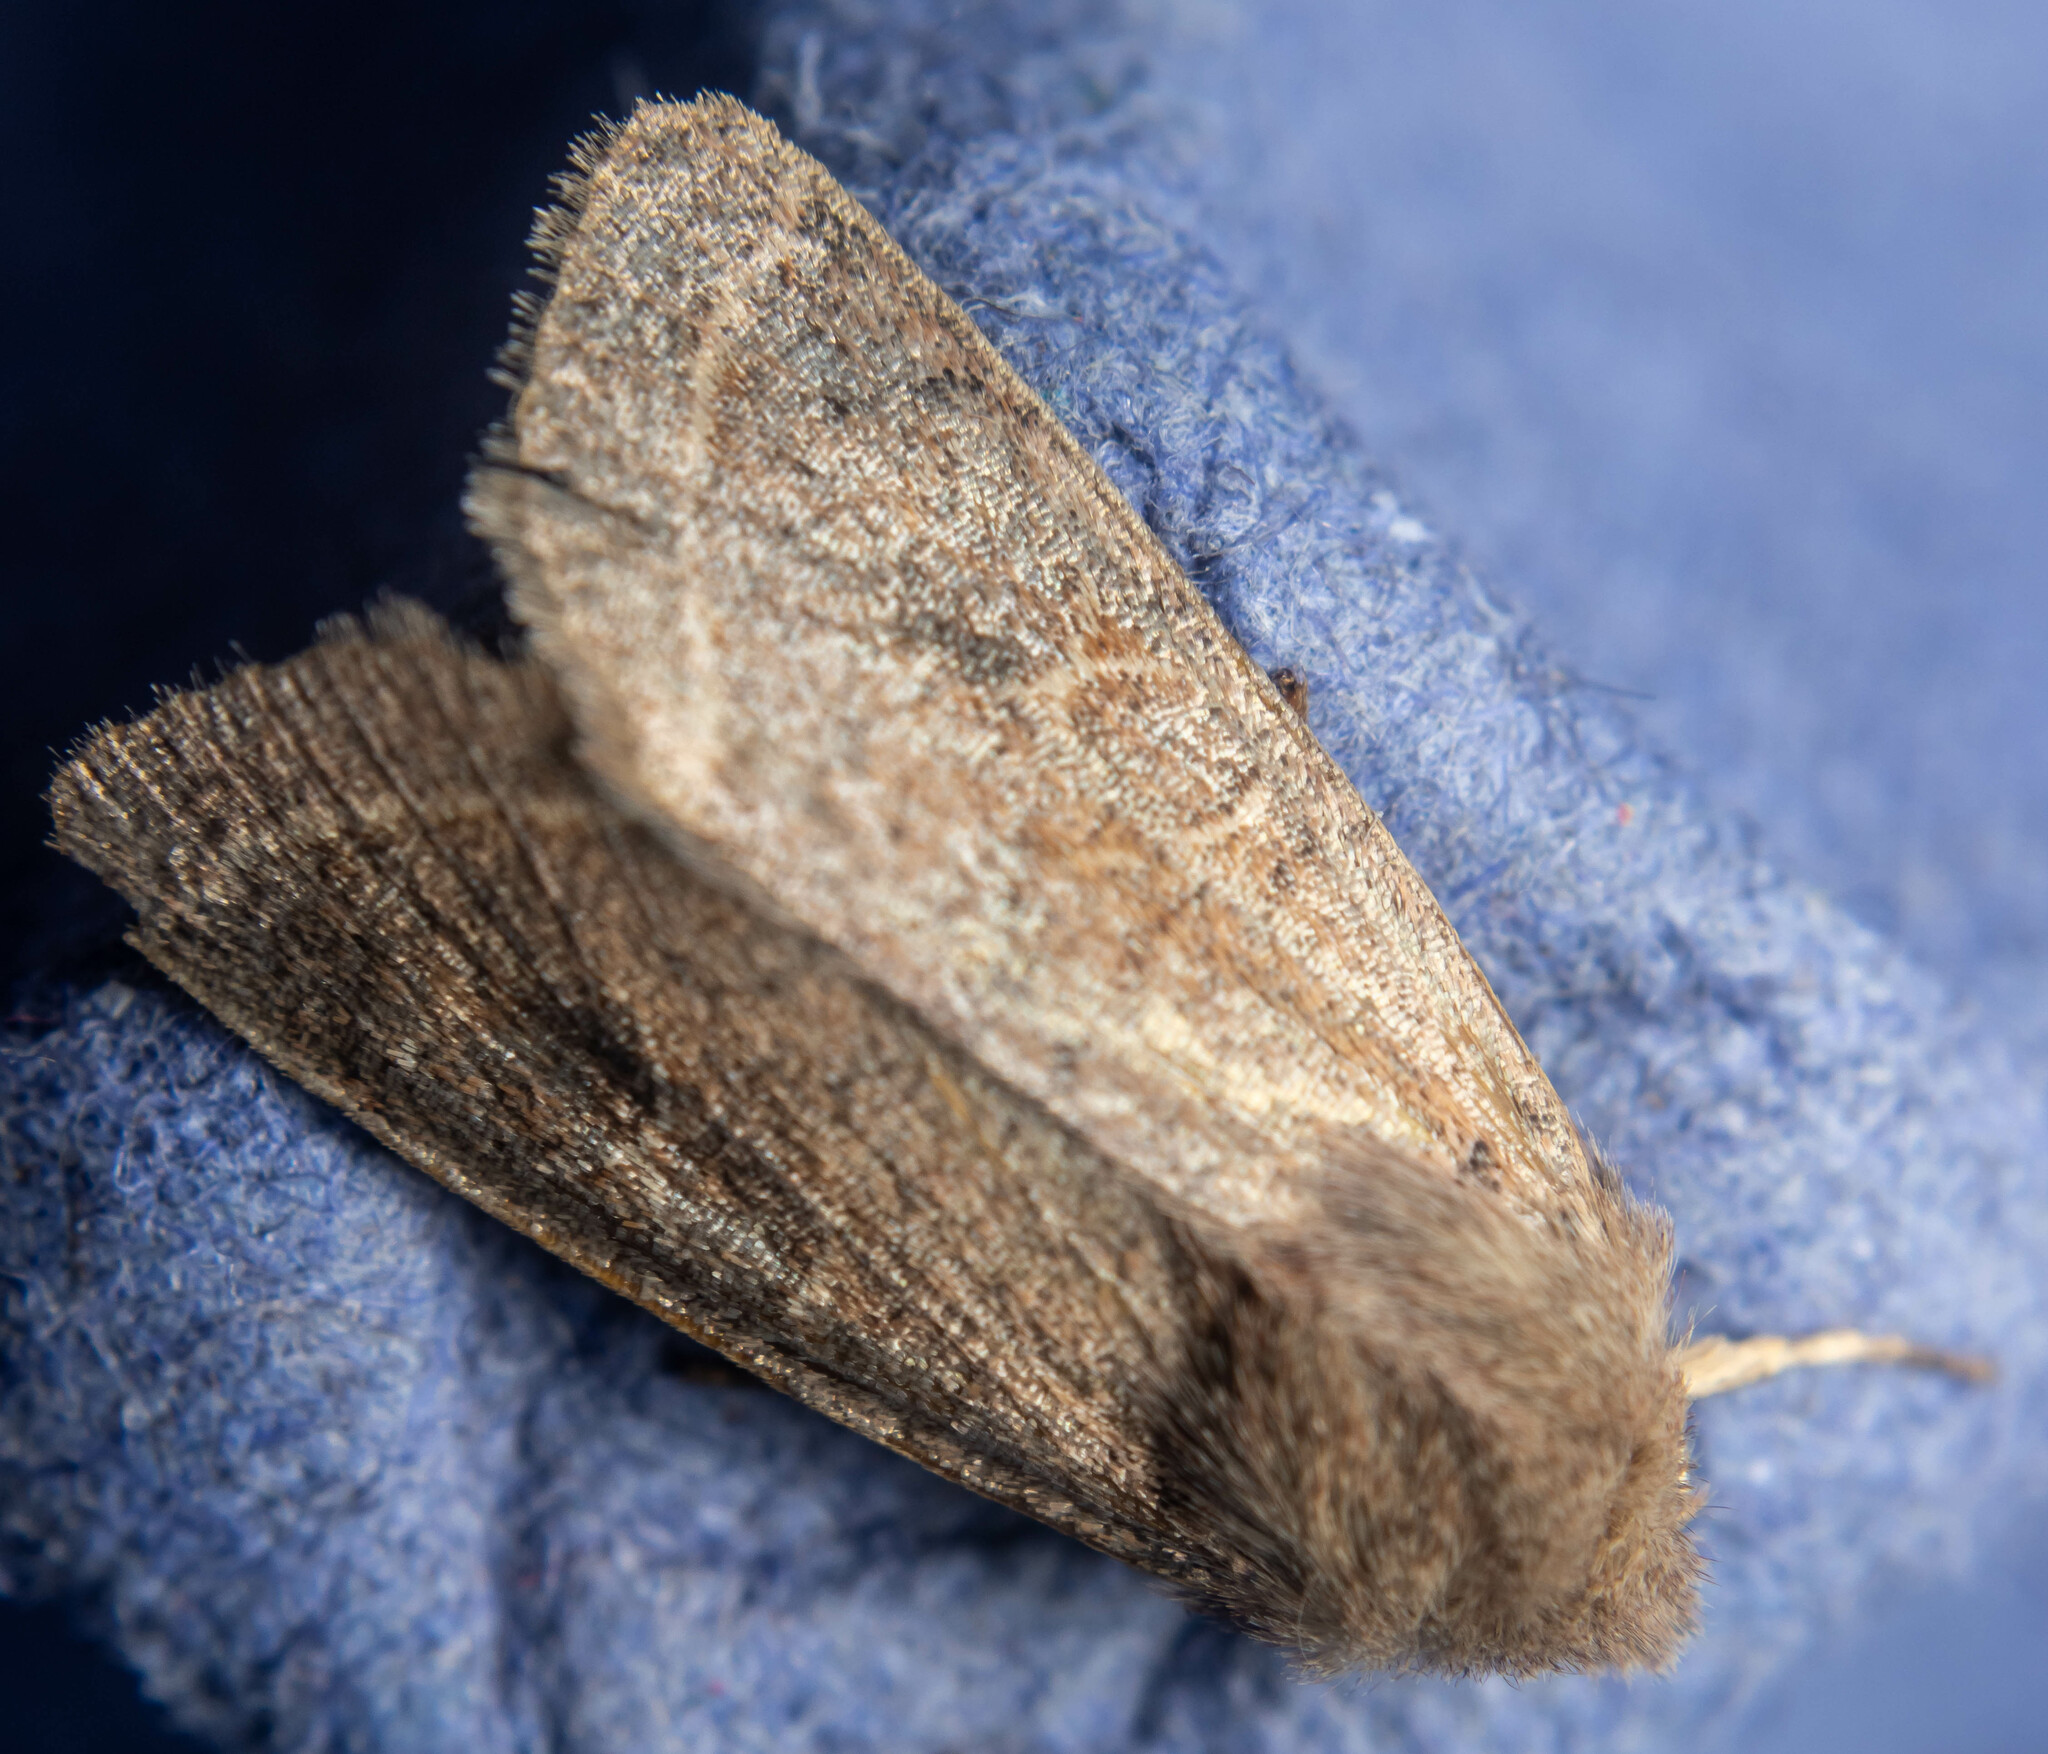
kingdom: Animalia
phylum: Arthropoda
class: Insecta
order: Lepidoptera
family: Noctuidae
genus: Orthosia
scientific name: Orthosia cerasi
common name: Common quaker
